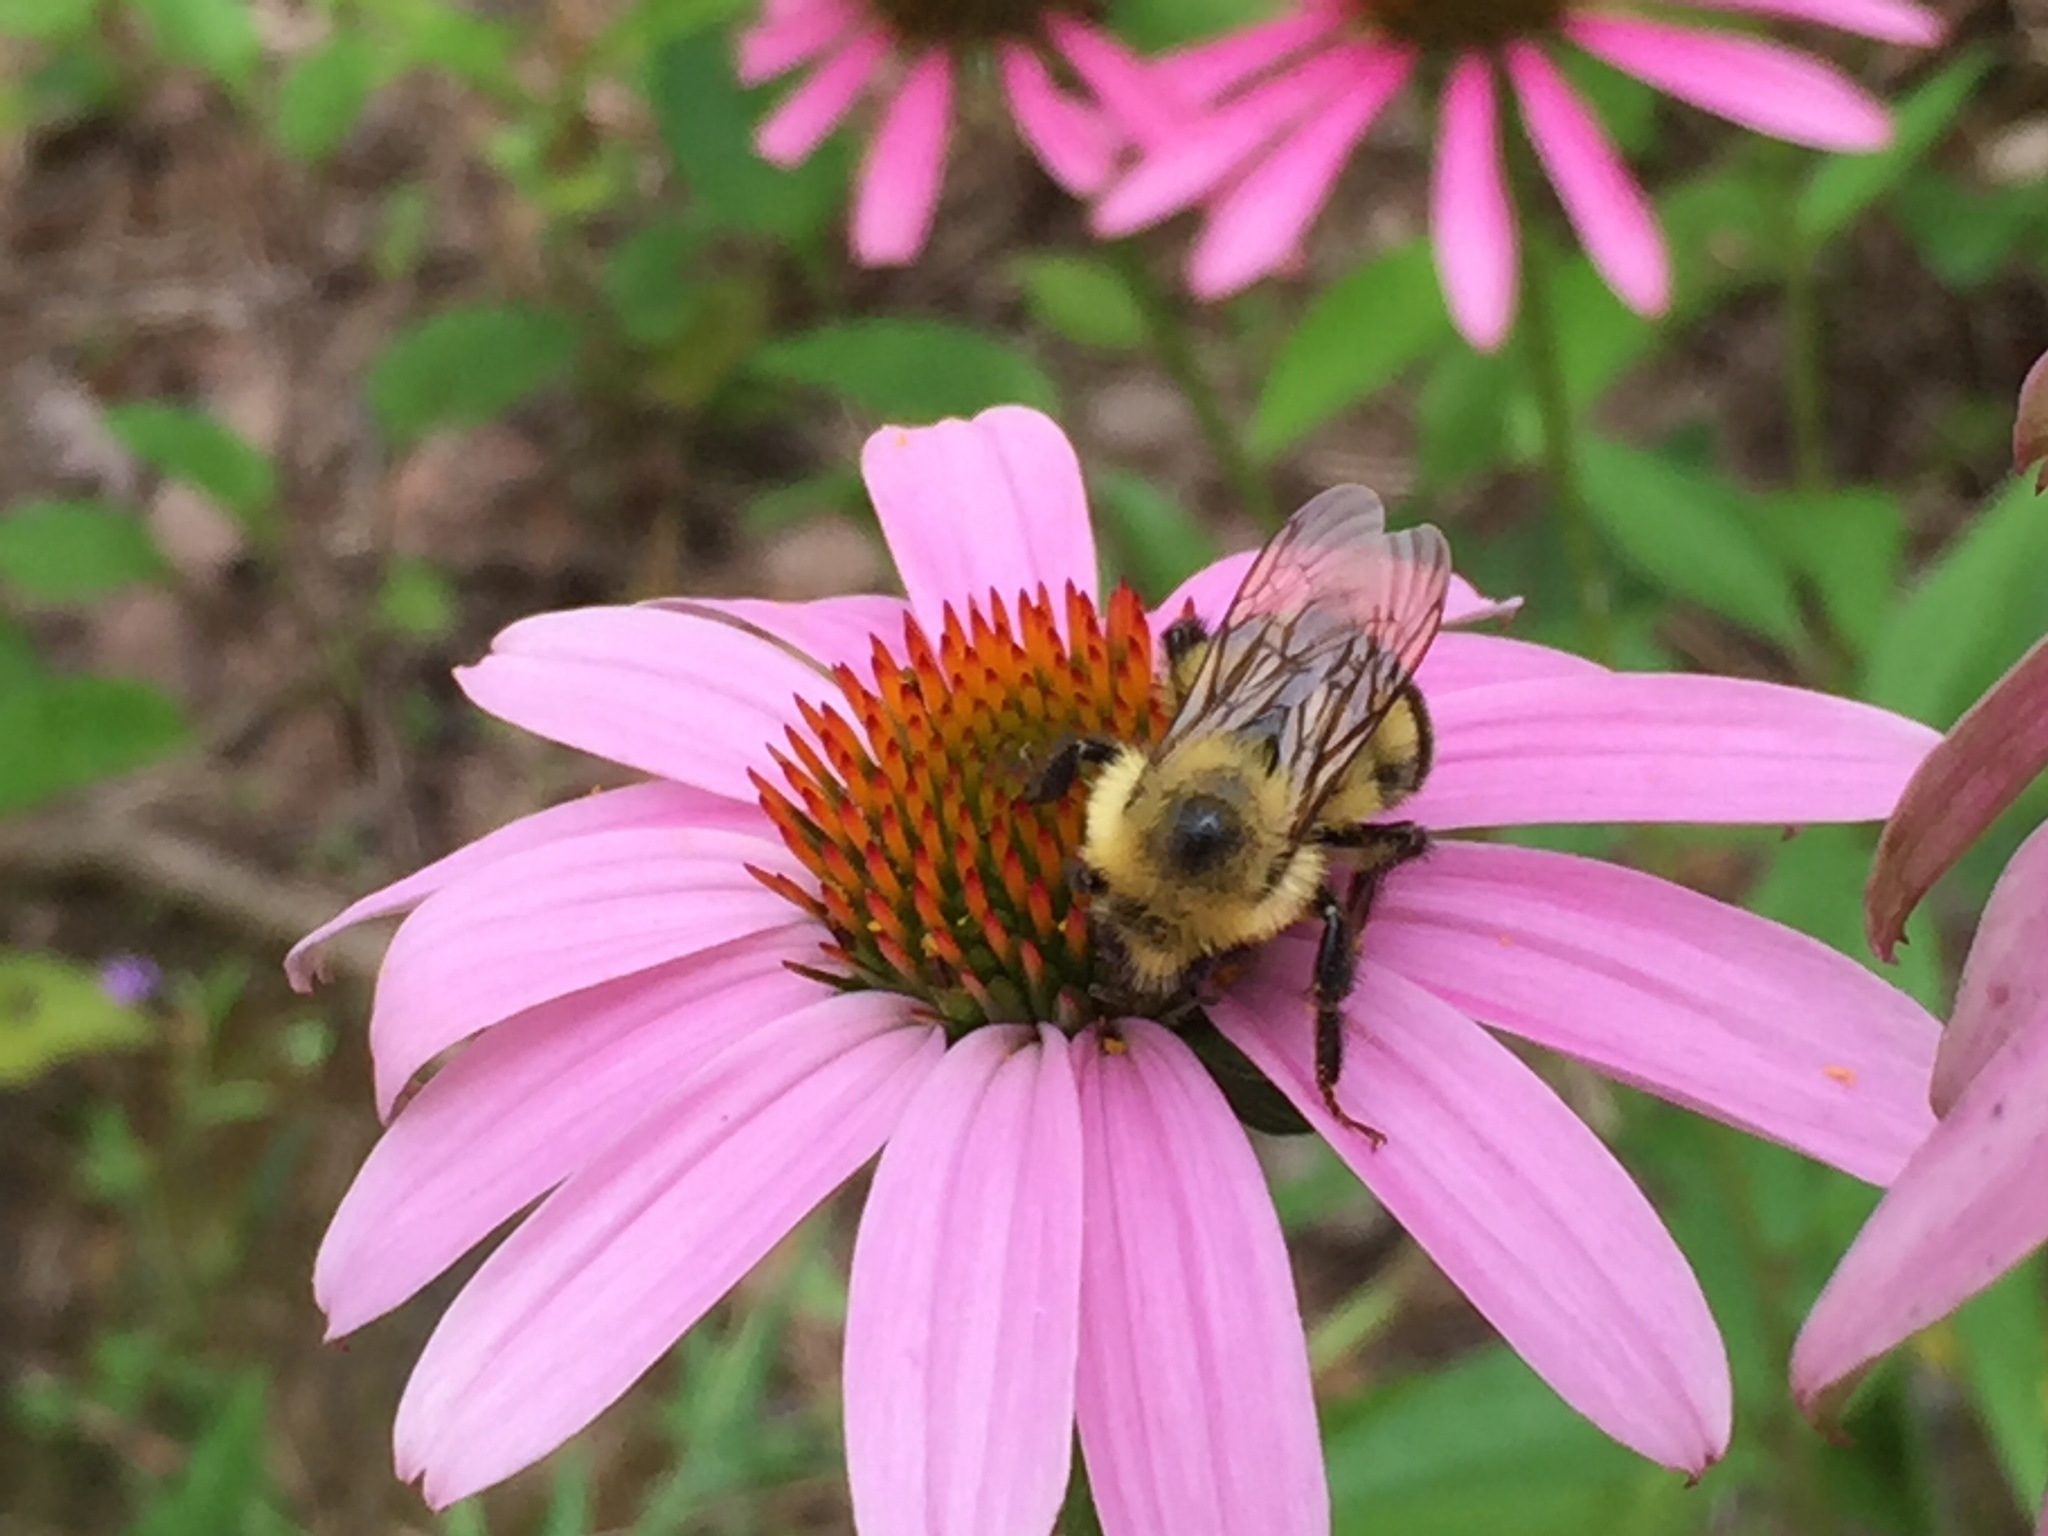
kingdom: Animalia
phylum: Arthropoda
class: Insecta
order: Hymenoptera
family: Apidae
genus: Bombus
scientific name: Bombus griseocollis
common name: Brown-belted bumble bee
